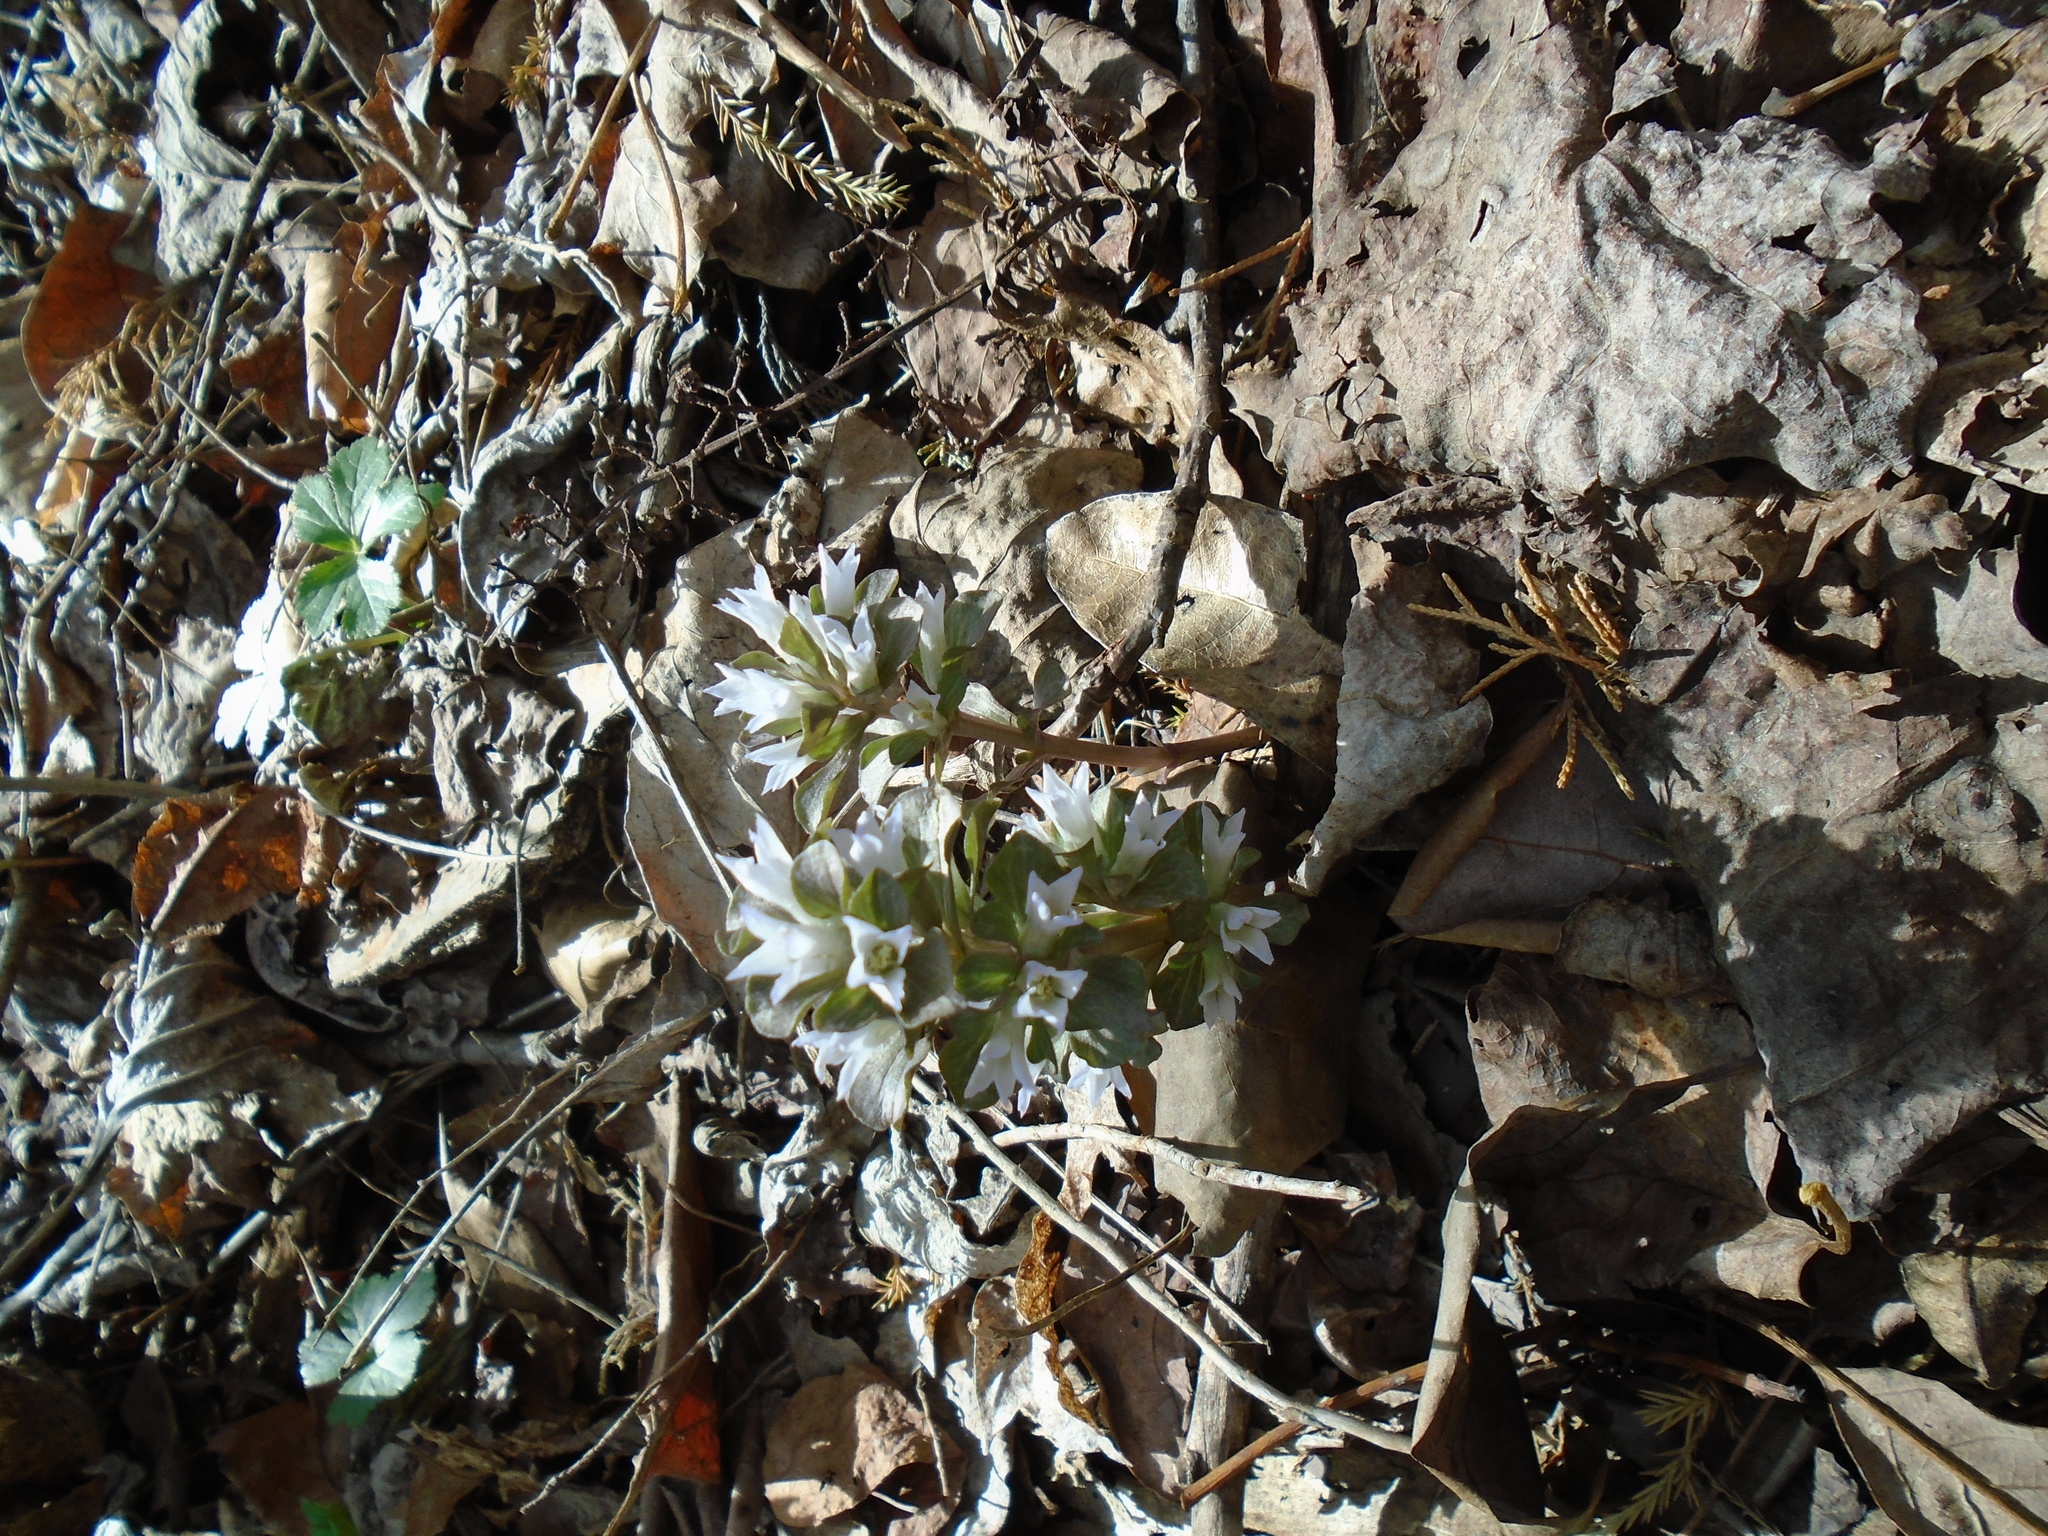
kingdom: Plantae
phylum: Tracheophyta
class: Magnoliopsida
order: Gentianales
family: Gentianaceae
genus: Obolaria
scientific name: Obolaria virginica
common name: Pennywort
